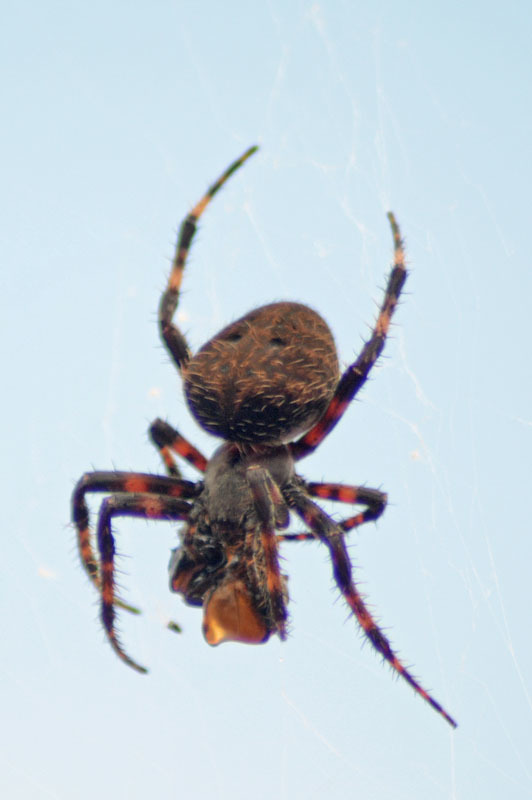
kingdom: Animalia
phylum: Arthropoda
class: Arachnida
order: Araneae
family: Araneidae
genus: Neoscona
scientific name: Neoscona crucifera
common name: Spotted orbweaver
